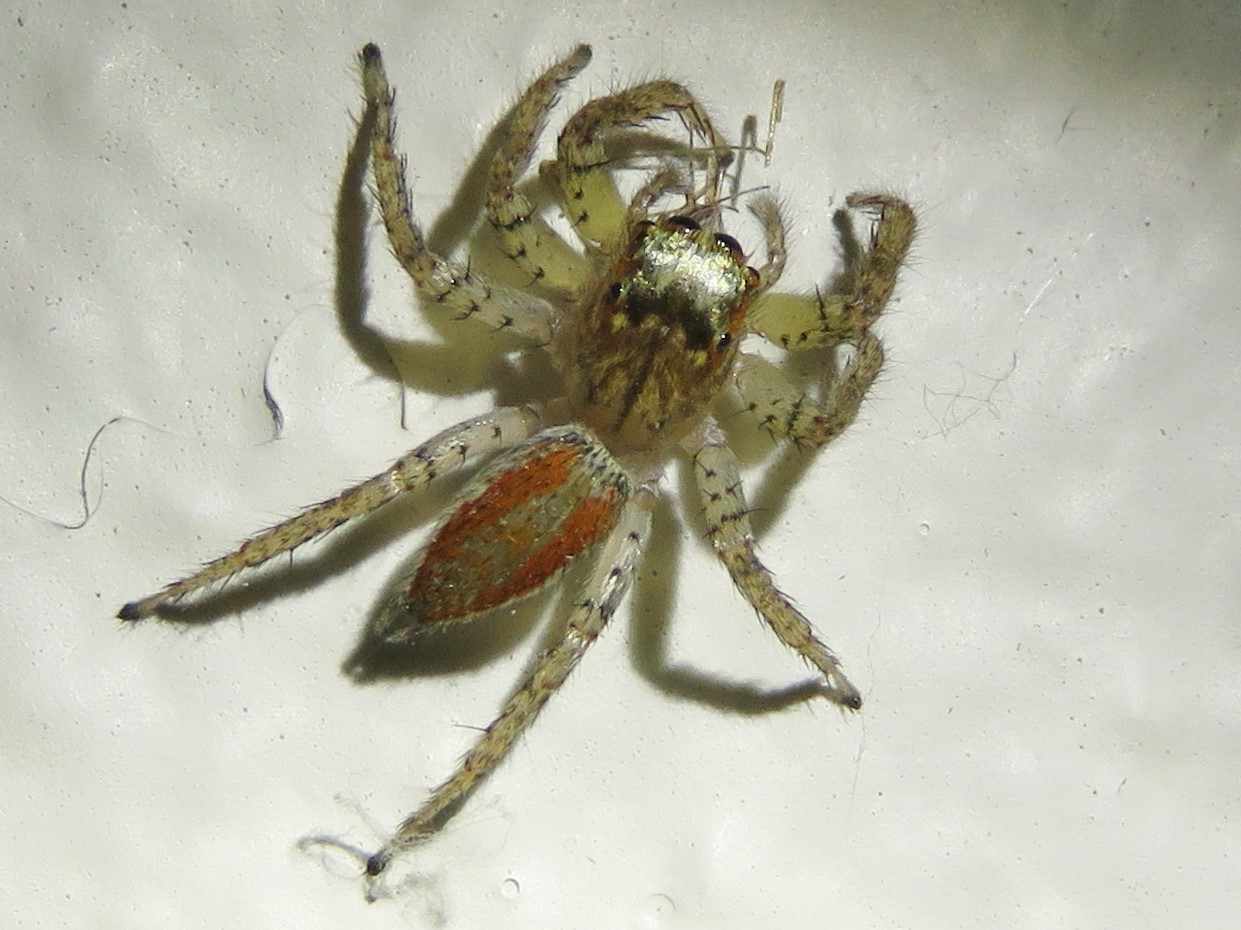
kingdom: Animalia
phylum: Arthropoda
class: Arachnida
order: Araneae
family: Salticidae
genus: Maevia
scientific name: Maevia inclemens
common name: Dimorphic jumper
